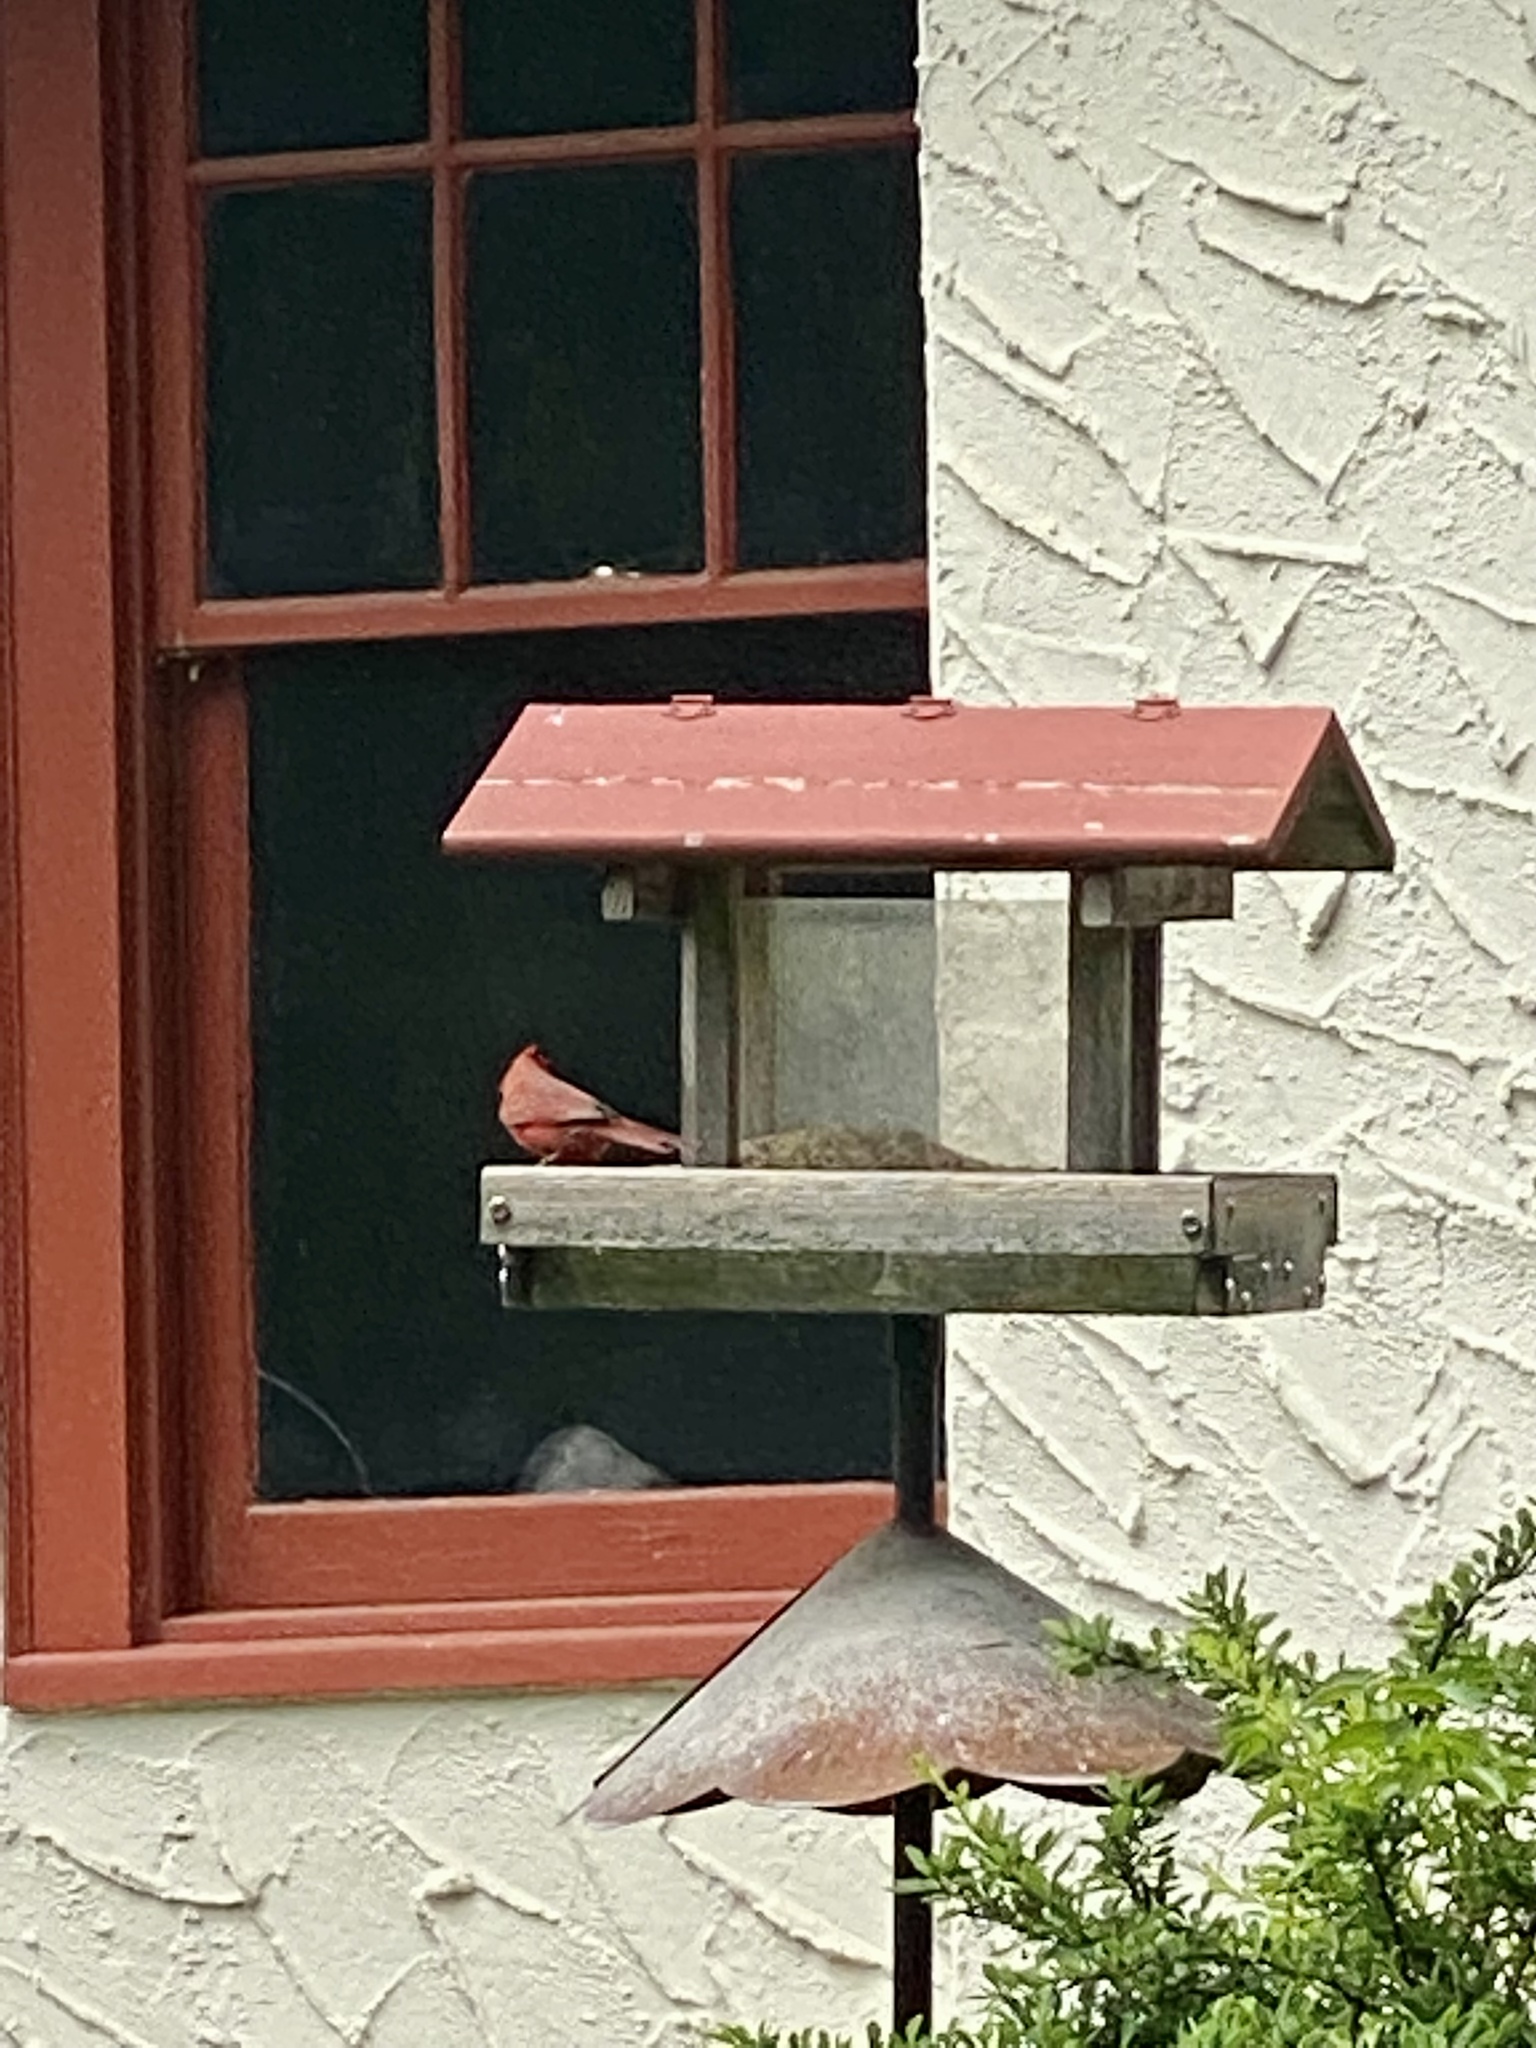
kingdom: Animalia
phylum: Chordata
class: Aves
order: Passeriformes
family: Cardinalidae
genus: Cardinalis
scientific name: Cardinalis cardinalis
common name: Northern cardinal
